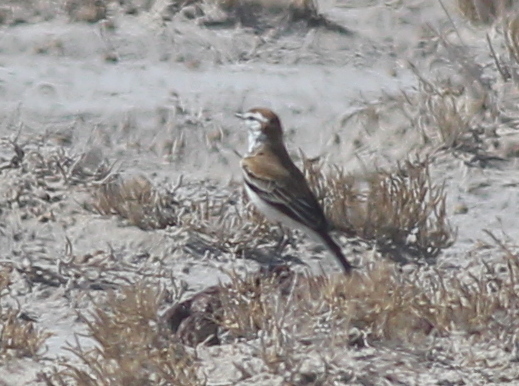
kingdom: Animalia
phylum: Chordata
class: Aves
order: Passeriformes
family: Tyrannidae
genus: Xolmis
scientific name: Xolmis rubetra
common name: Rusty-backed monjita
